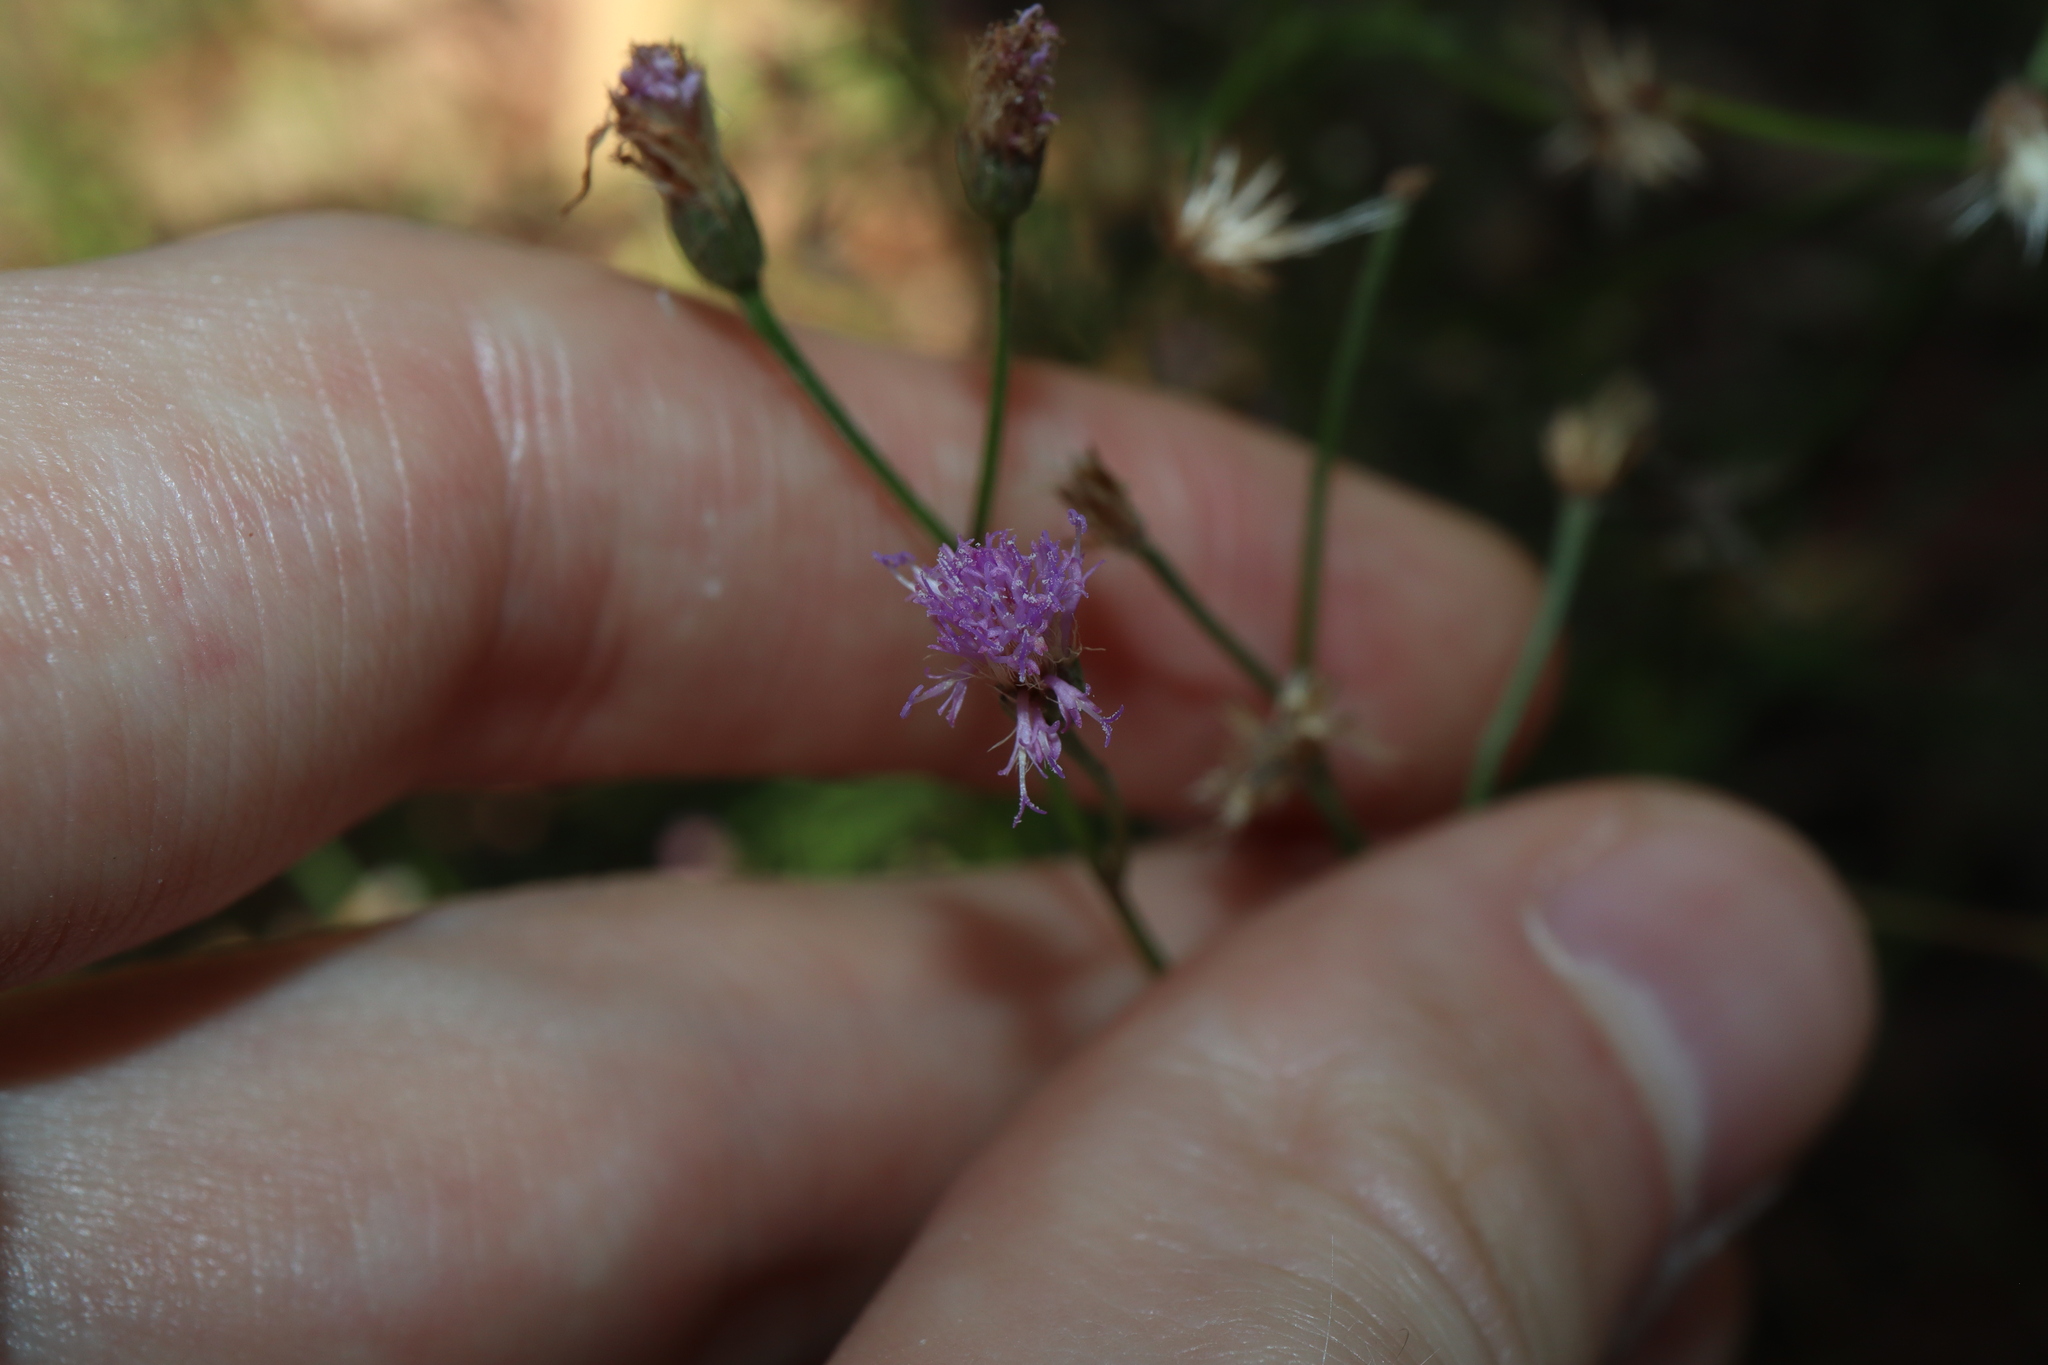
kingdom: Plantae
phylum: Tracheophyta
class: Magnoliopsida
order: Asterales
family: Asteraceae
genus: Cyanthillium
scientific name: Cyanthillium cinereum
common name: Little ironweed
